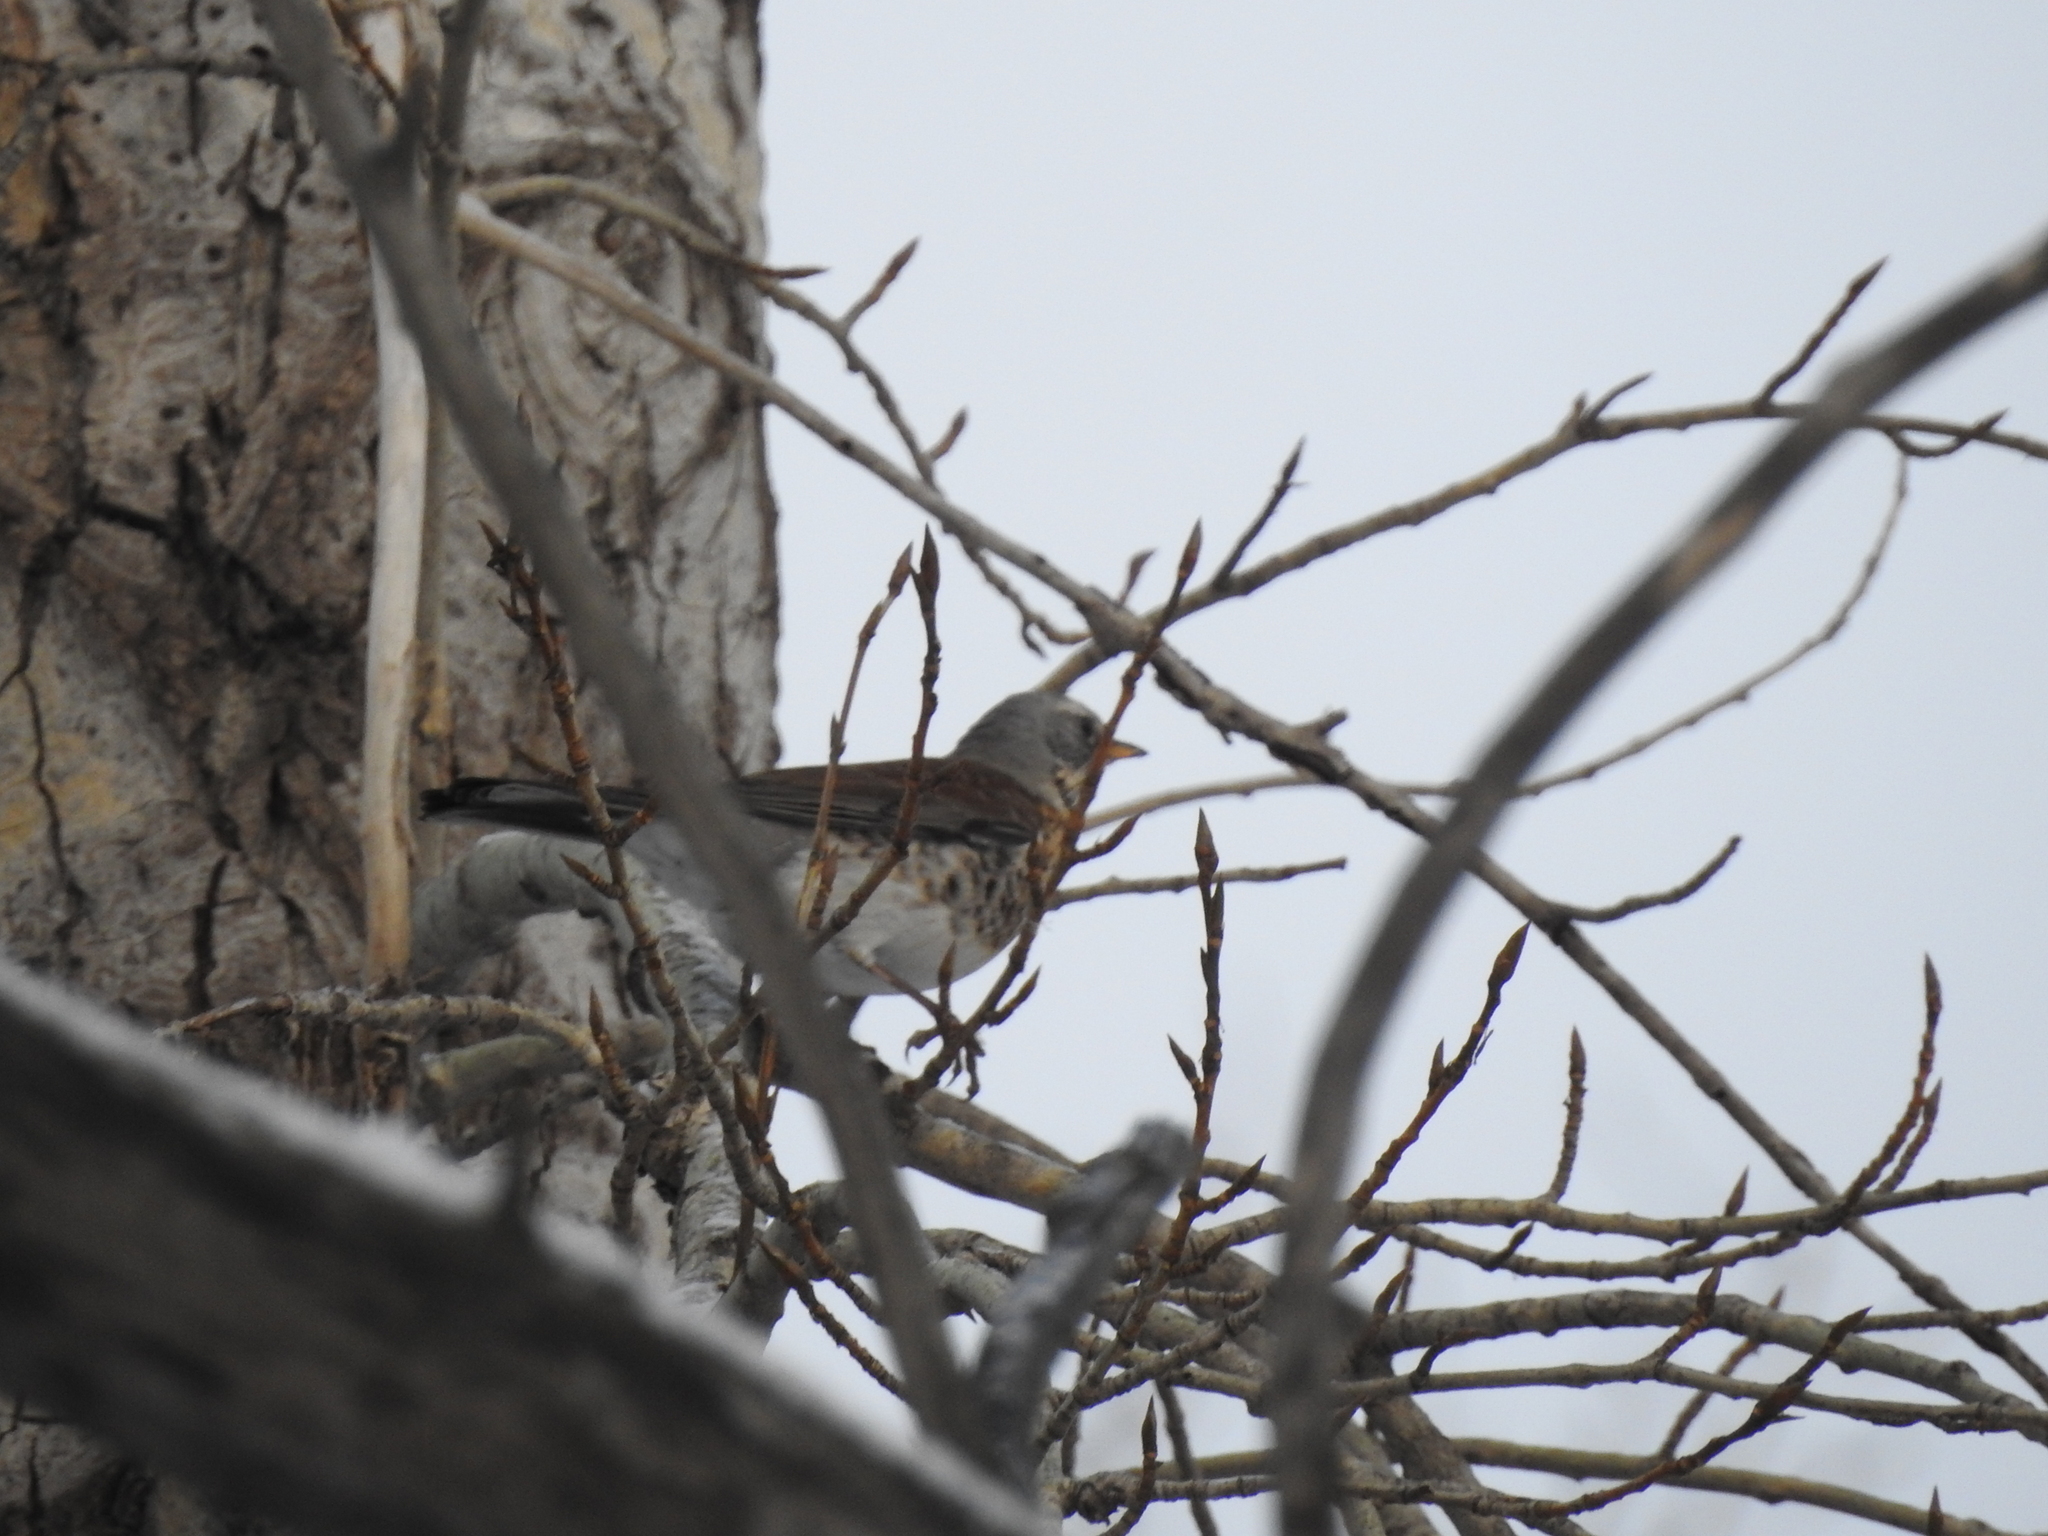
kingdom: Animalia
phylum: Chordata
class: Aves
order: Passeriformes
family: Turdidae
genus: Turdus
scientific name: Turdus pilaris
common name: Fieldfare
